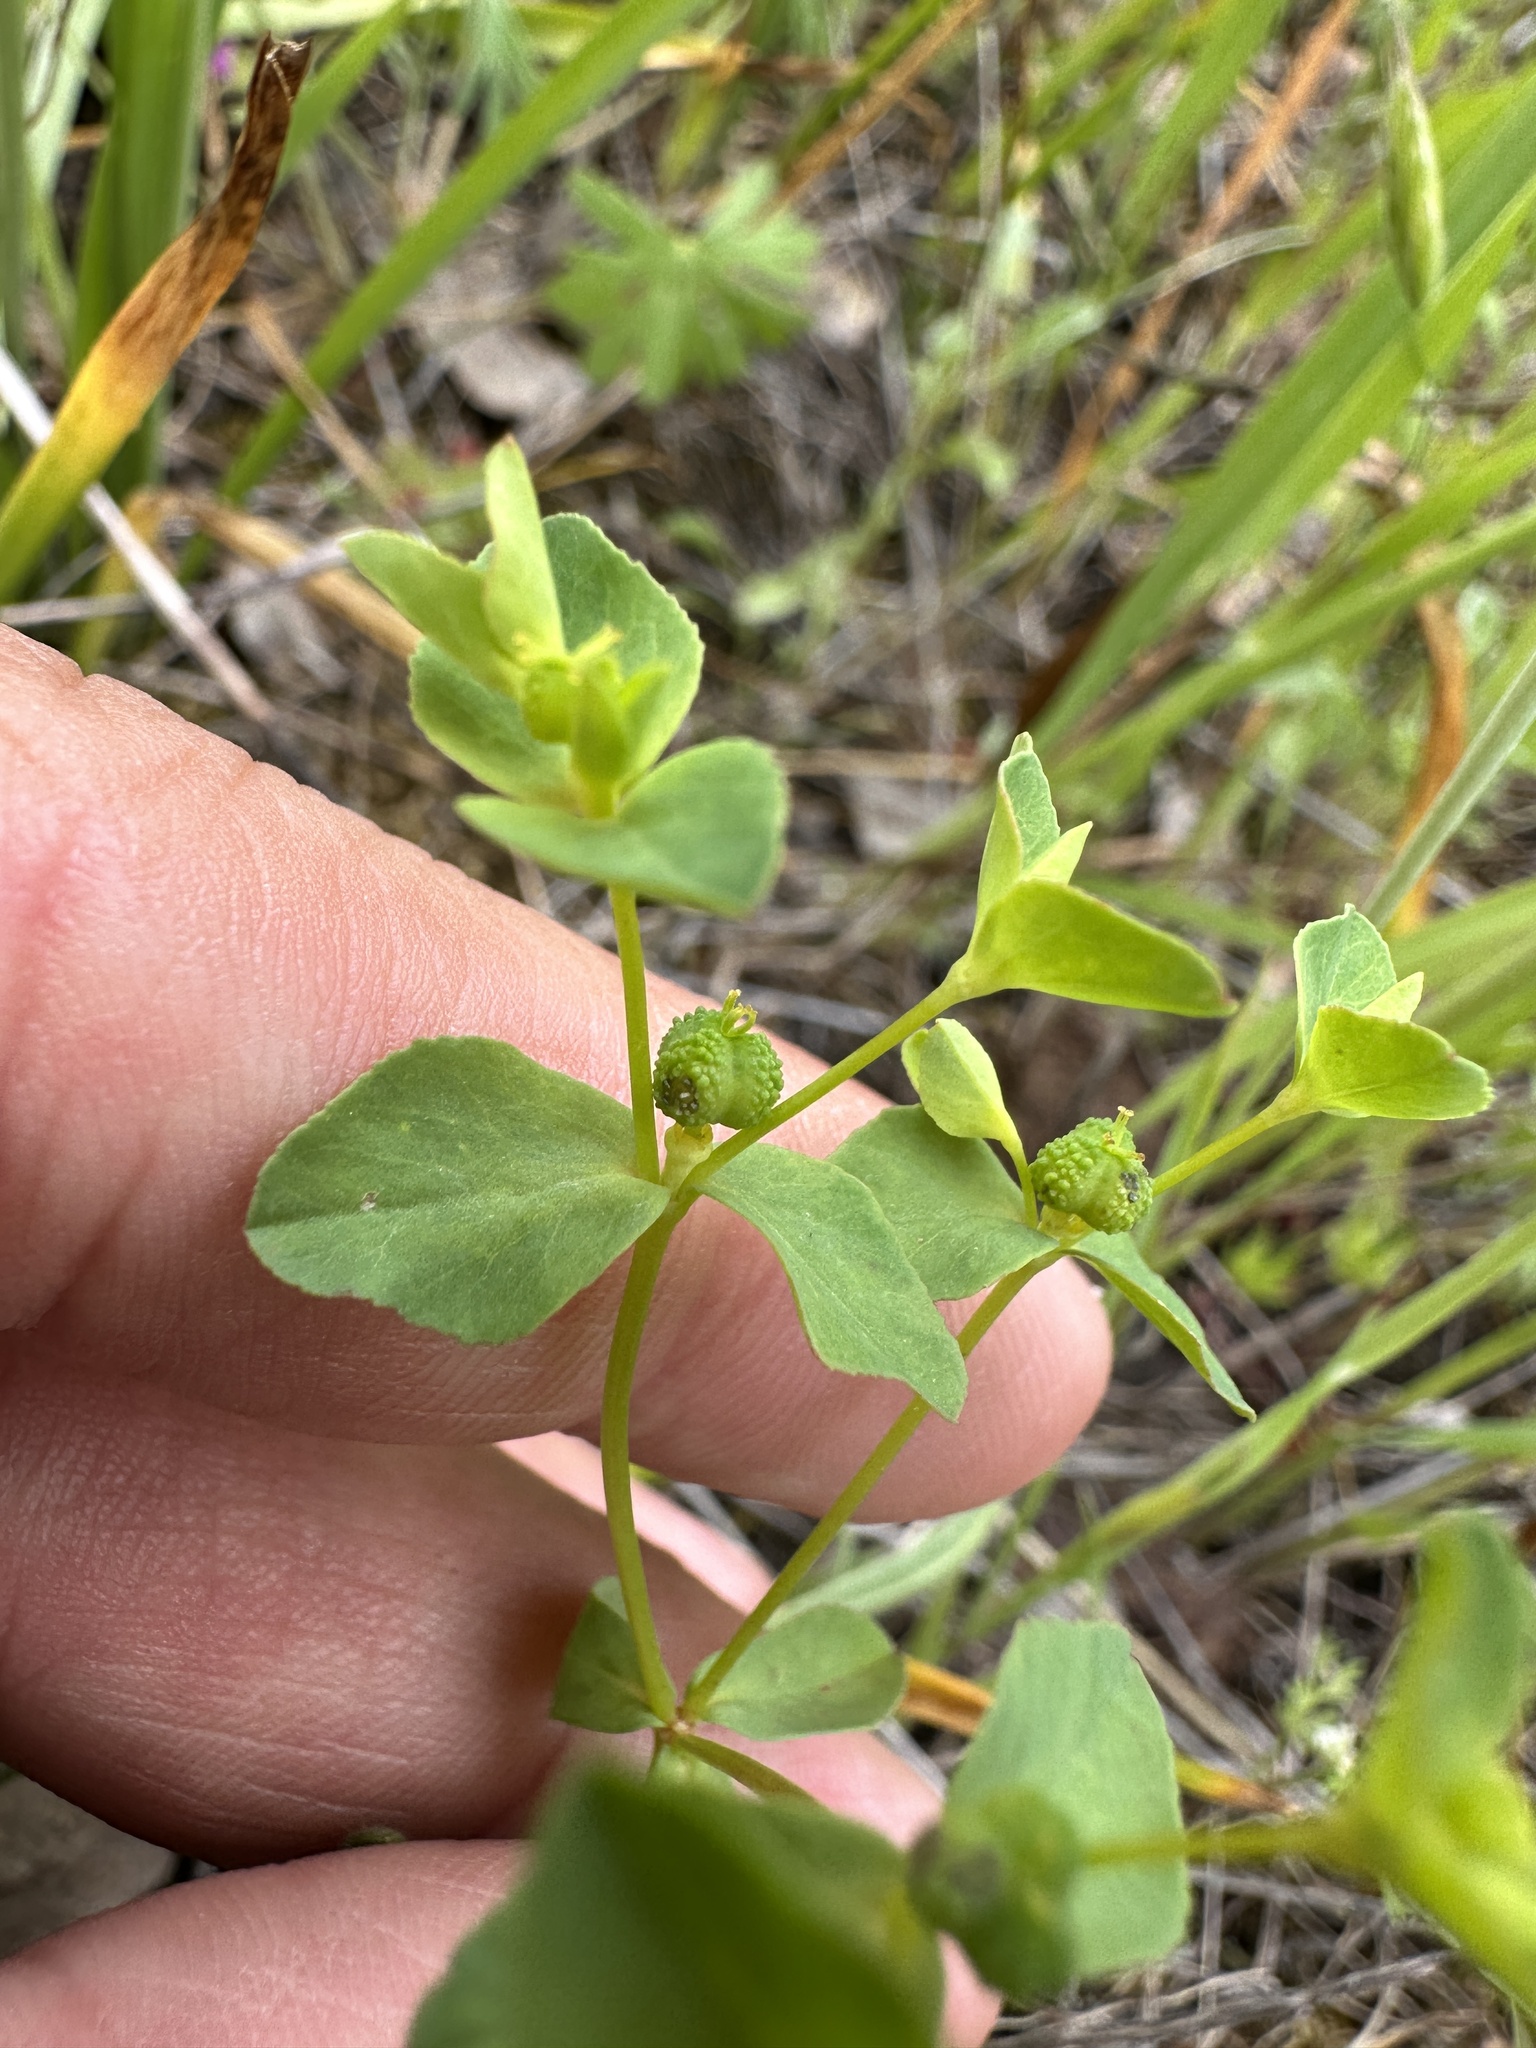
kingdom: Plantae
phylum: Tracheophyta
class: Magnoliopsida
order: Malpighiales
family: Euphorbiaceae
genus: Euphorbia
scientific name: Euphorbia spathulata
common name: Blunt spurge
